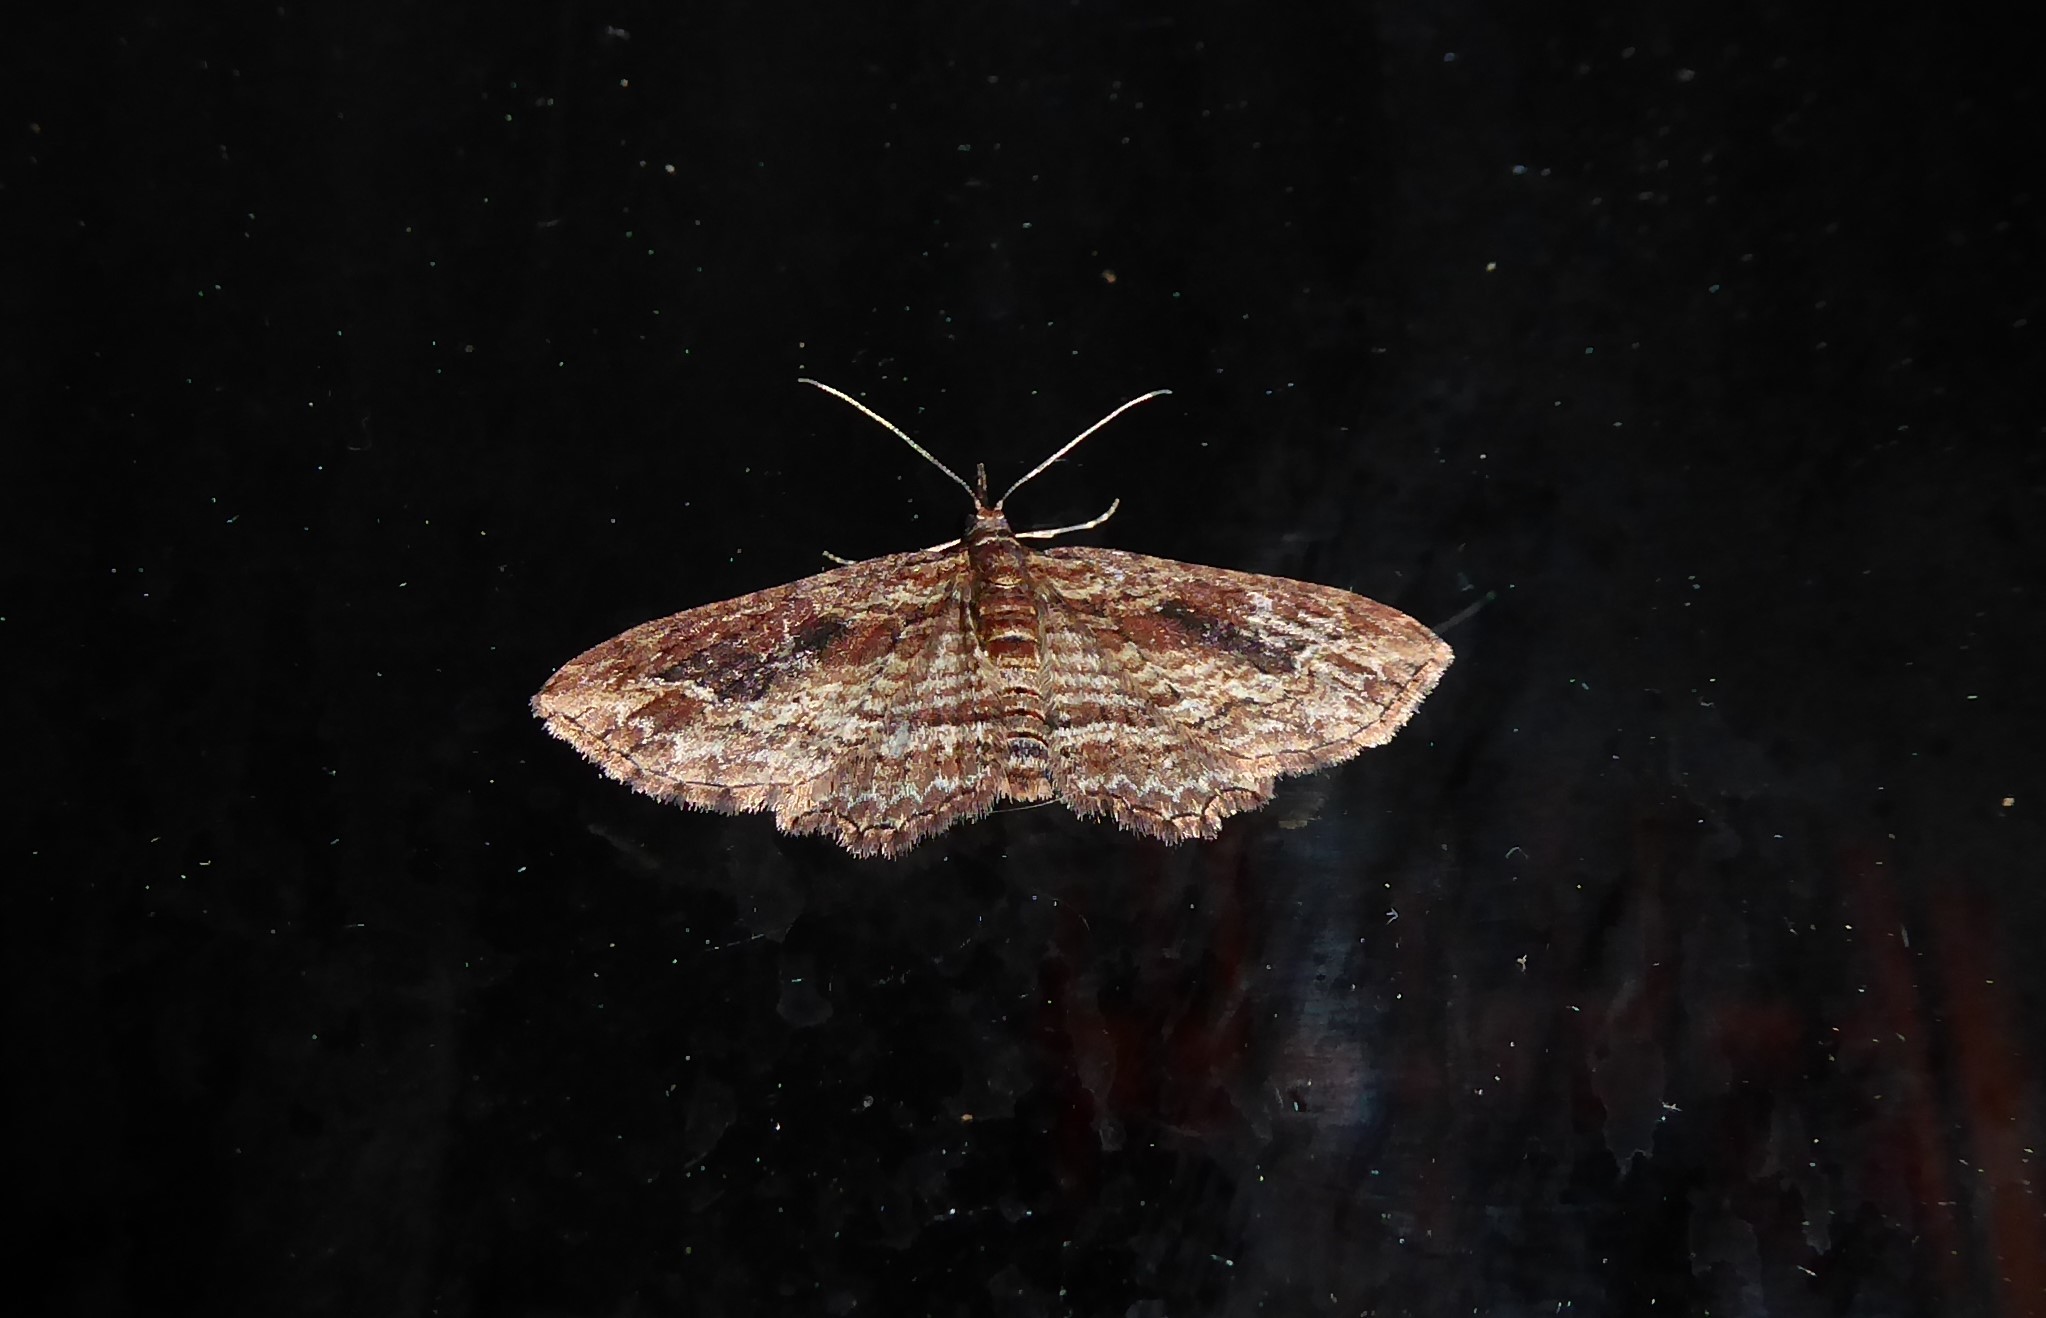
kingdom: Animalia
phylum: Arthropoda
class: Insecta
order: Lepidoptera
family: Geometridae
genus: Chloroclystis
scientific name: Chloroclystis filata
